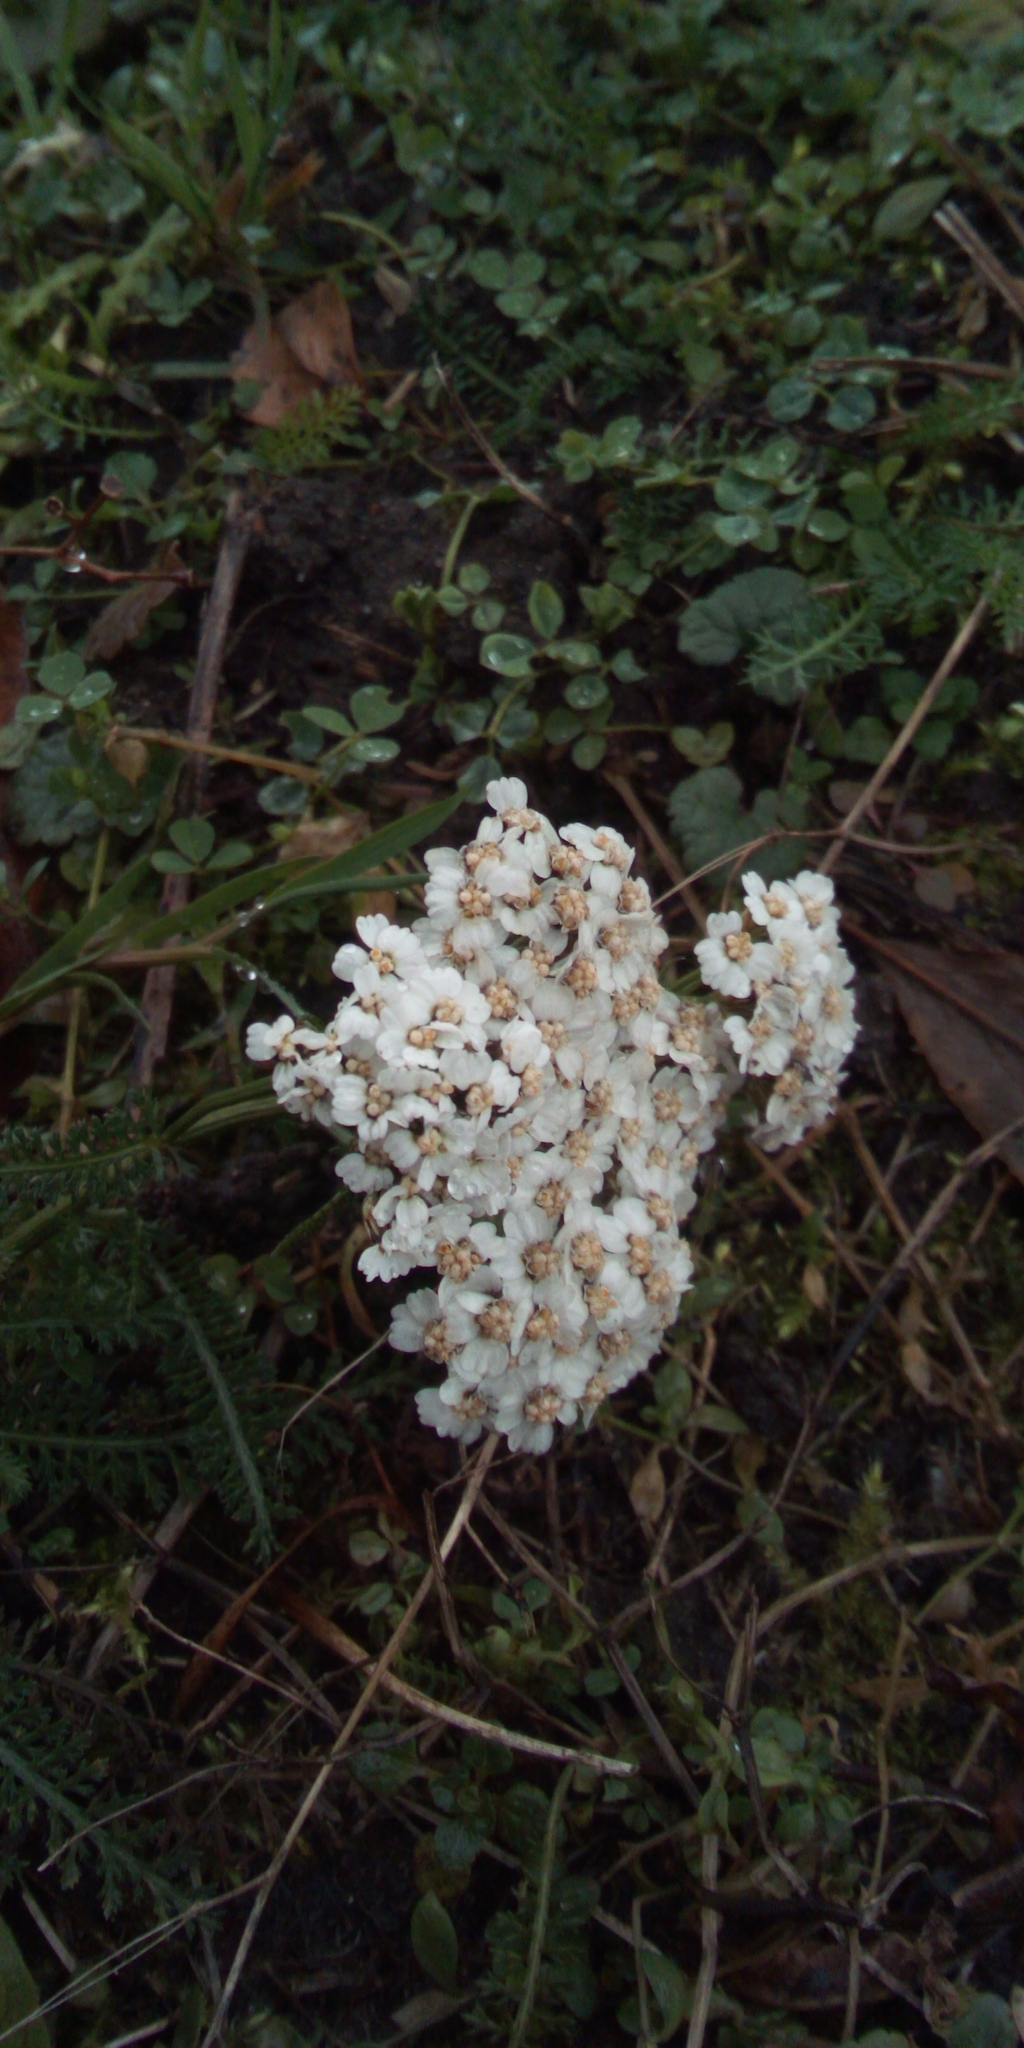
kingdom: Plantae
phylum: Tracheophyta
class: Magnoliopsida
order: Asterales
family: Asteraceae
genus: Achillea
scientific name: Achillea millefolium
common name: Yarrow
